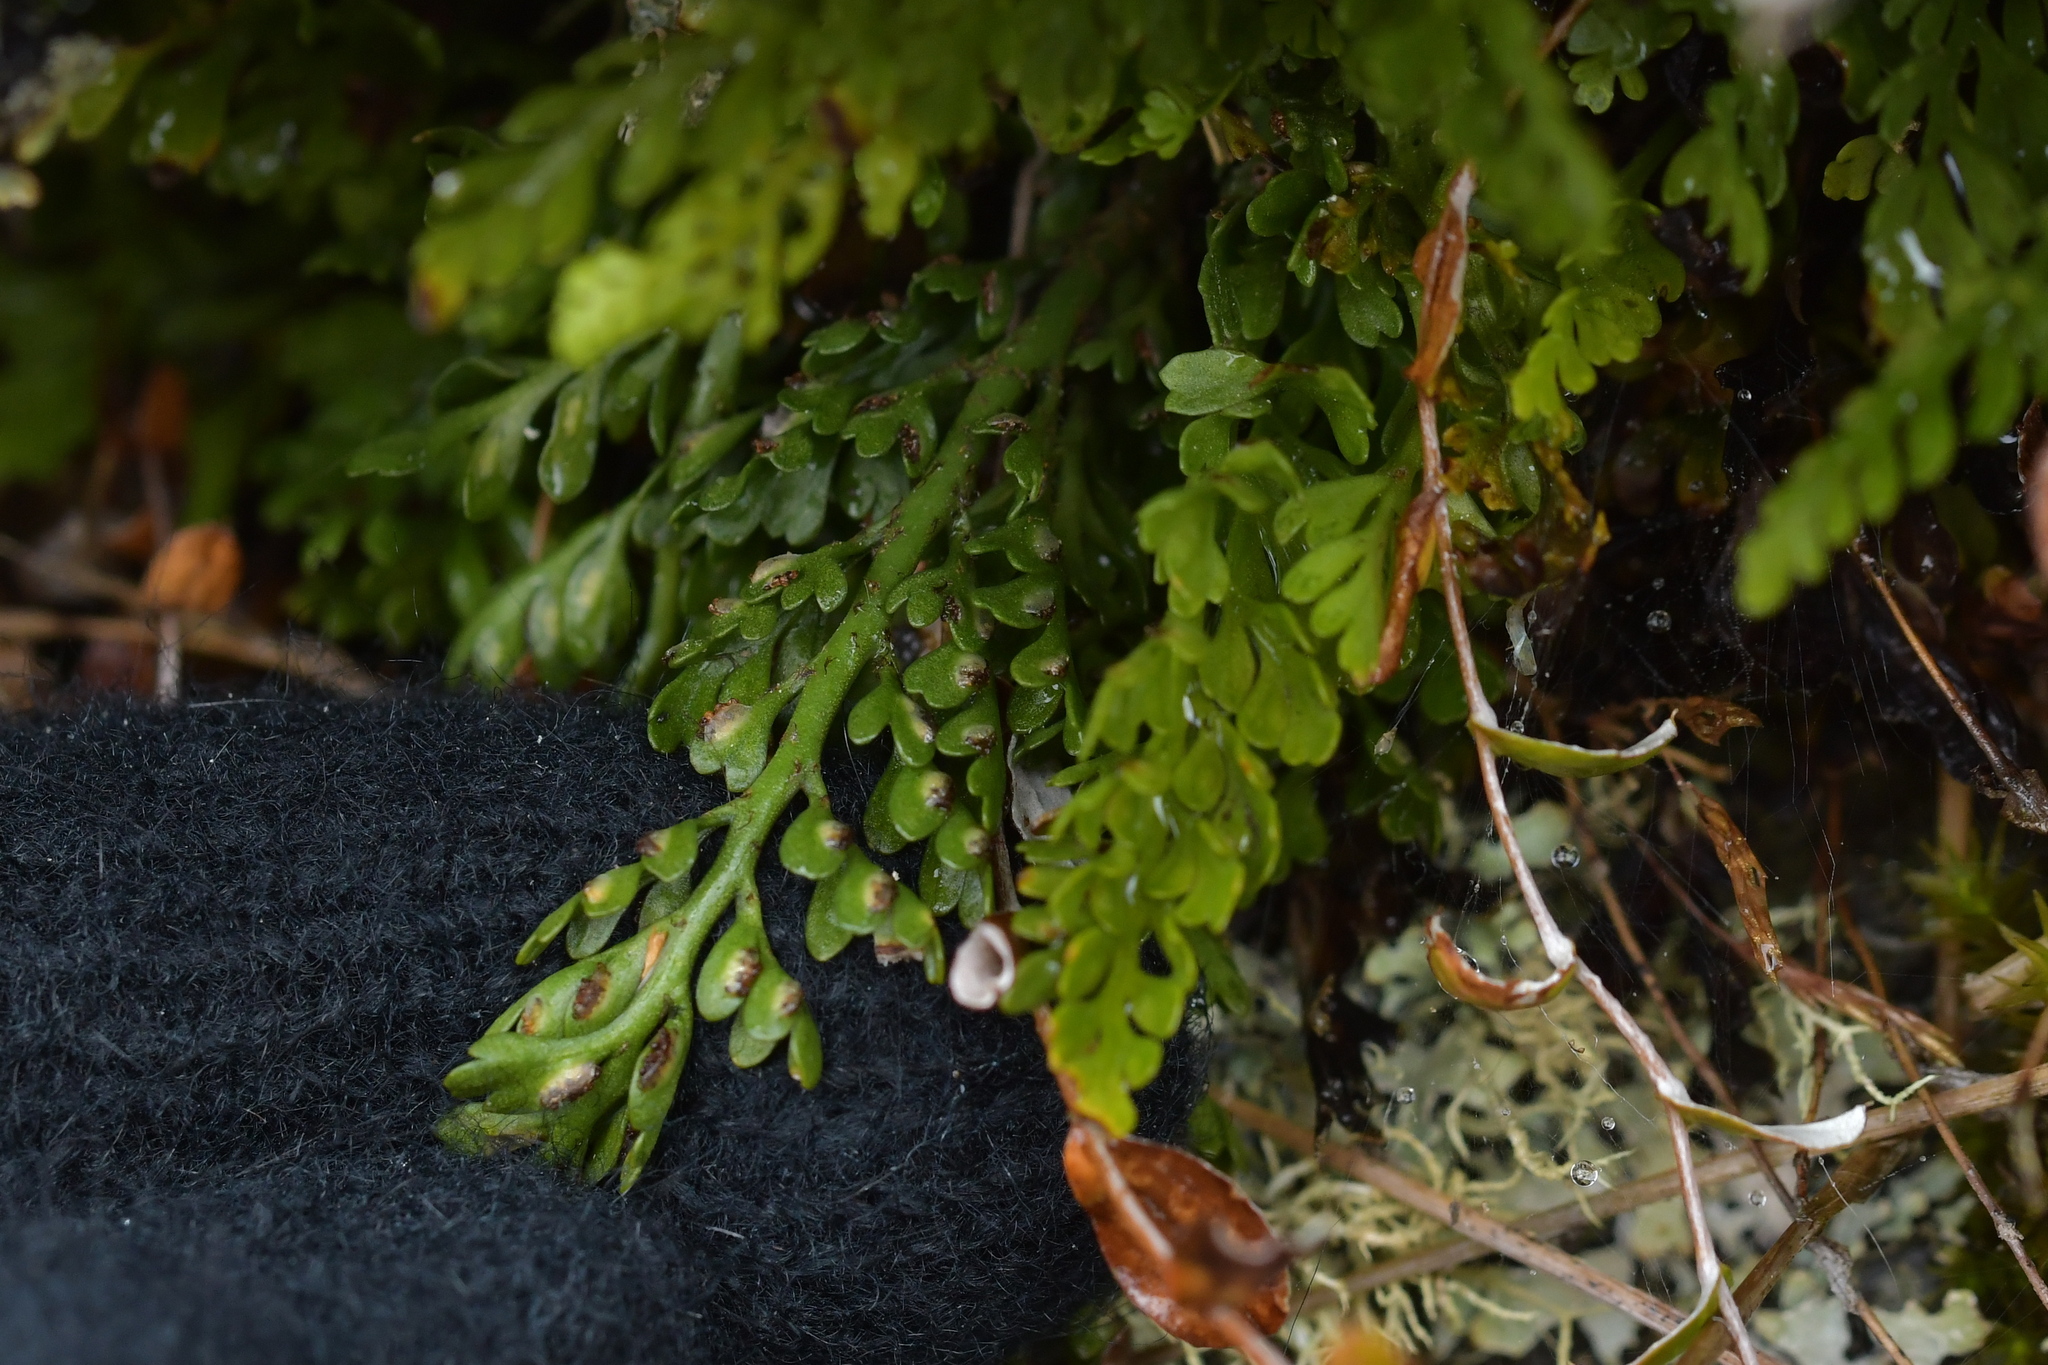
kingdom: Plantae
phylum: Tracheophyta
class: Polypodiopsida
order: Polypodiales
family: Aspleniaceae
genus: Asplenium
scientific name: Asplenium hookerianum
